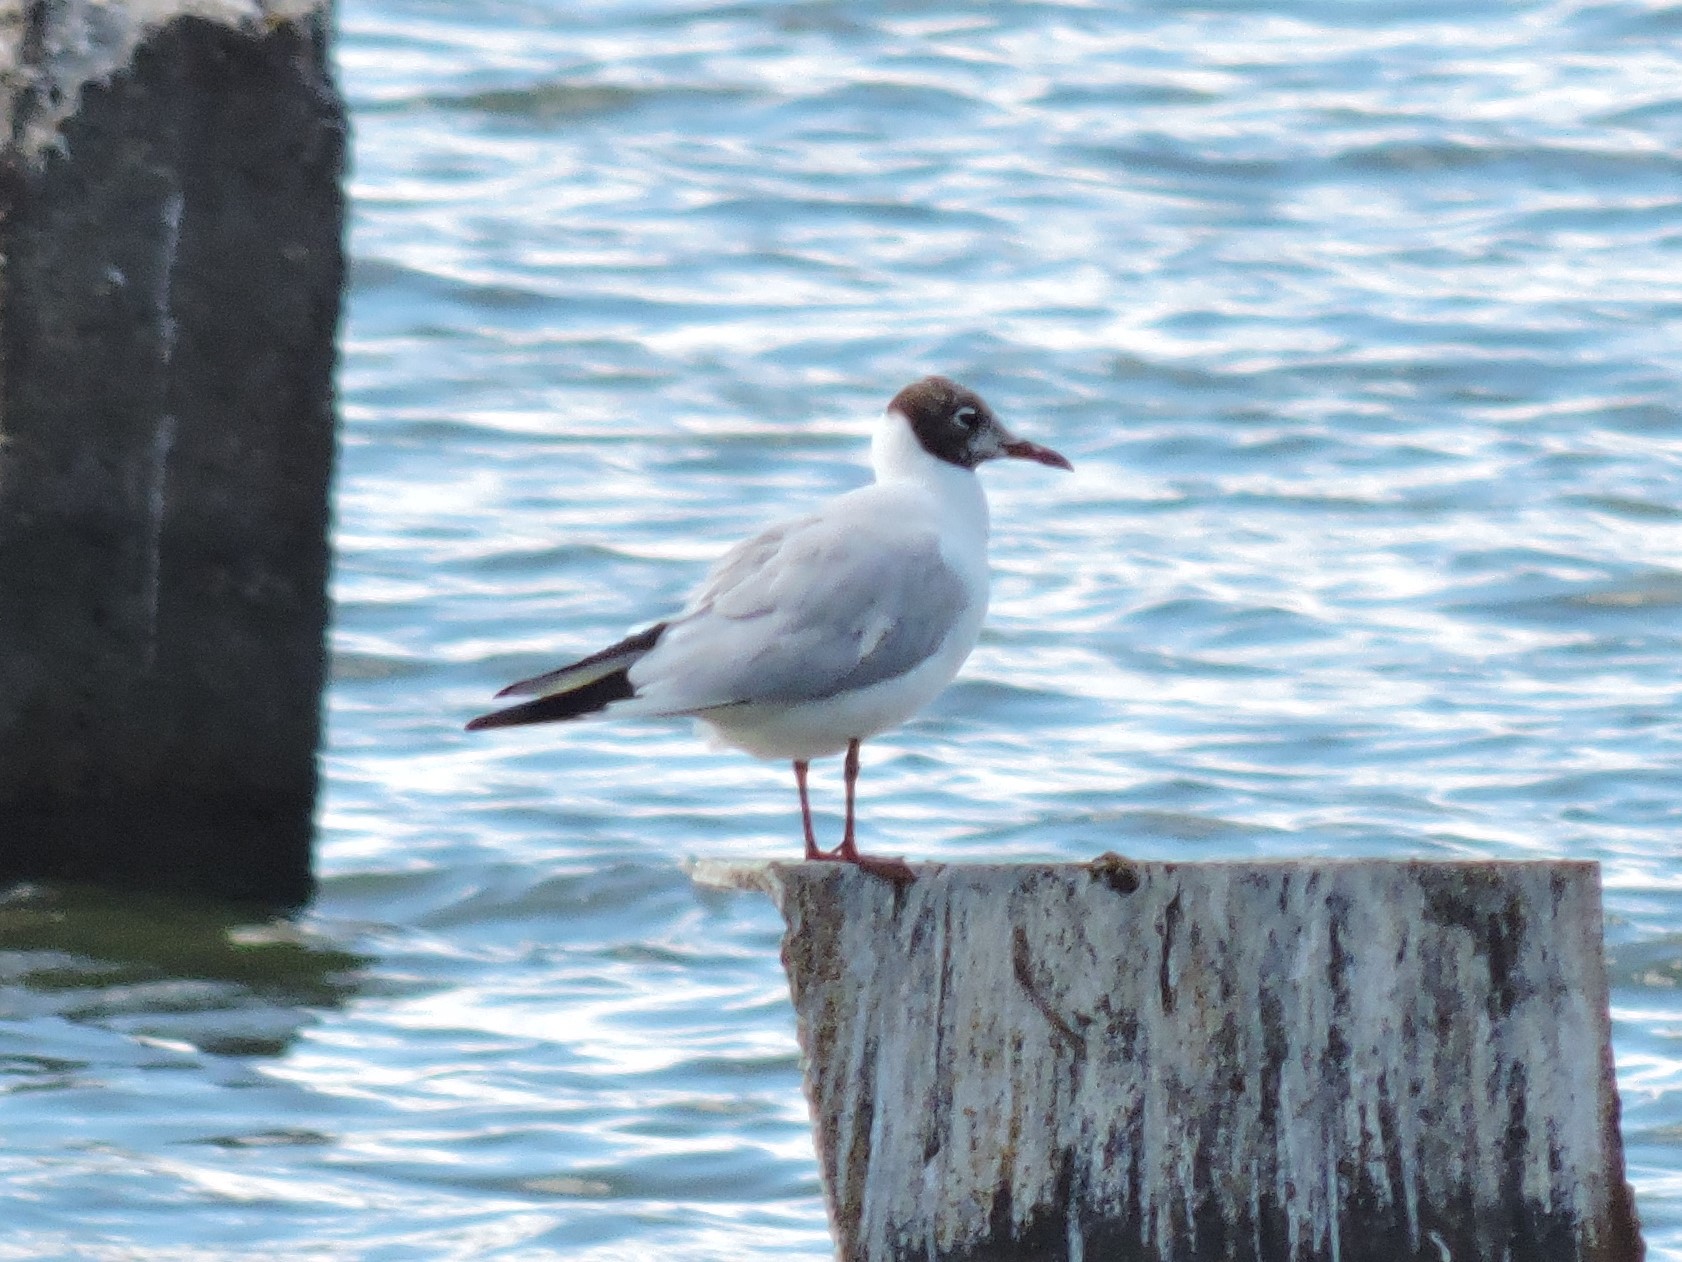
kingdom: Animalia
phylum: Chordata
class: Aves
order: Charadriiformes
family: Laridae
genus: Chroicocephalus
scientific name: Chroicocephalus ridibundus
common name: Black-headed gull
